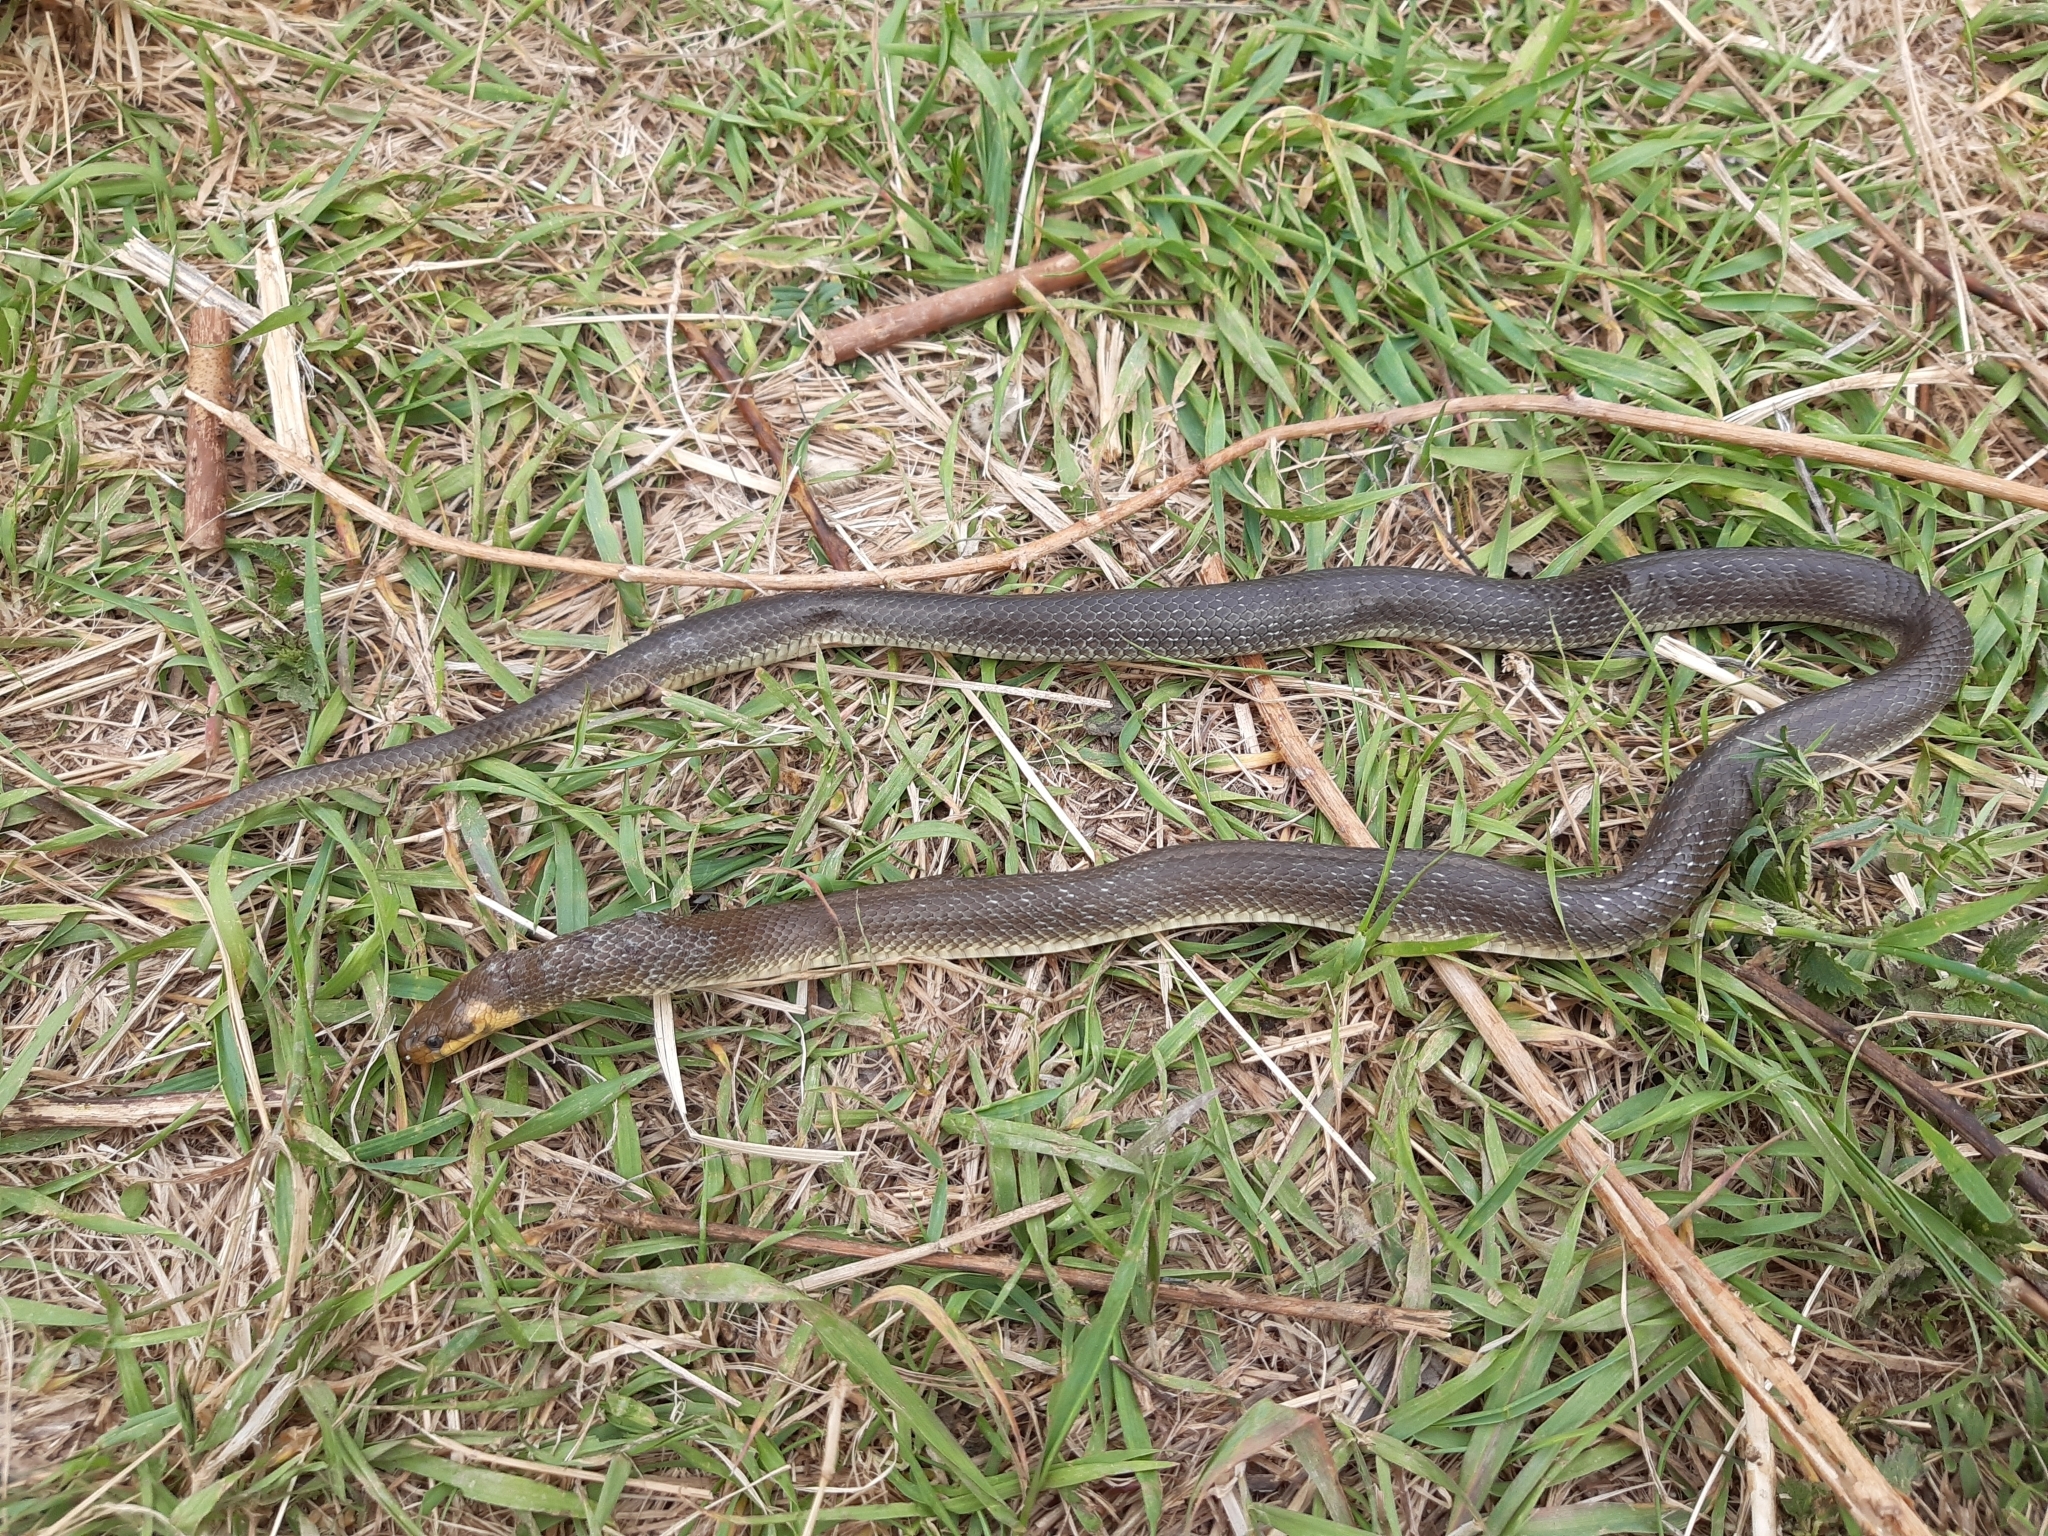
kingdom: Animalia
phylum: Chordata
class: Squamata
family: Colubridae
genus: Zamenis
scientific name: Zamenis longissimus
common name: Aesculapean snake
